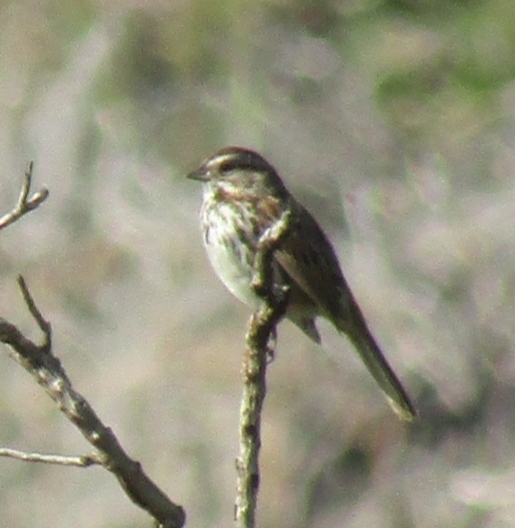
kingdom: Animalia
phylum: Chordata
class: Aves
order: Passeriformes
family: Passerellidae
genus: Melospiza
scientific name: Melospiza melodia
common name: Song sparrow
